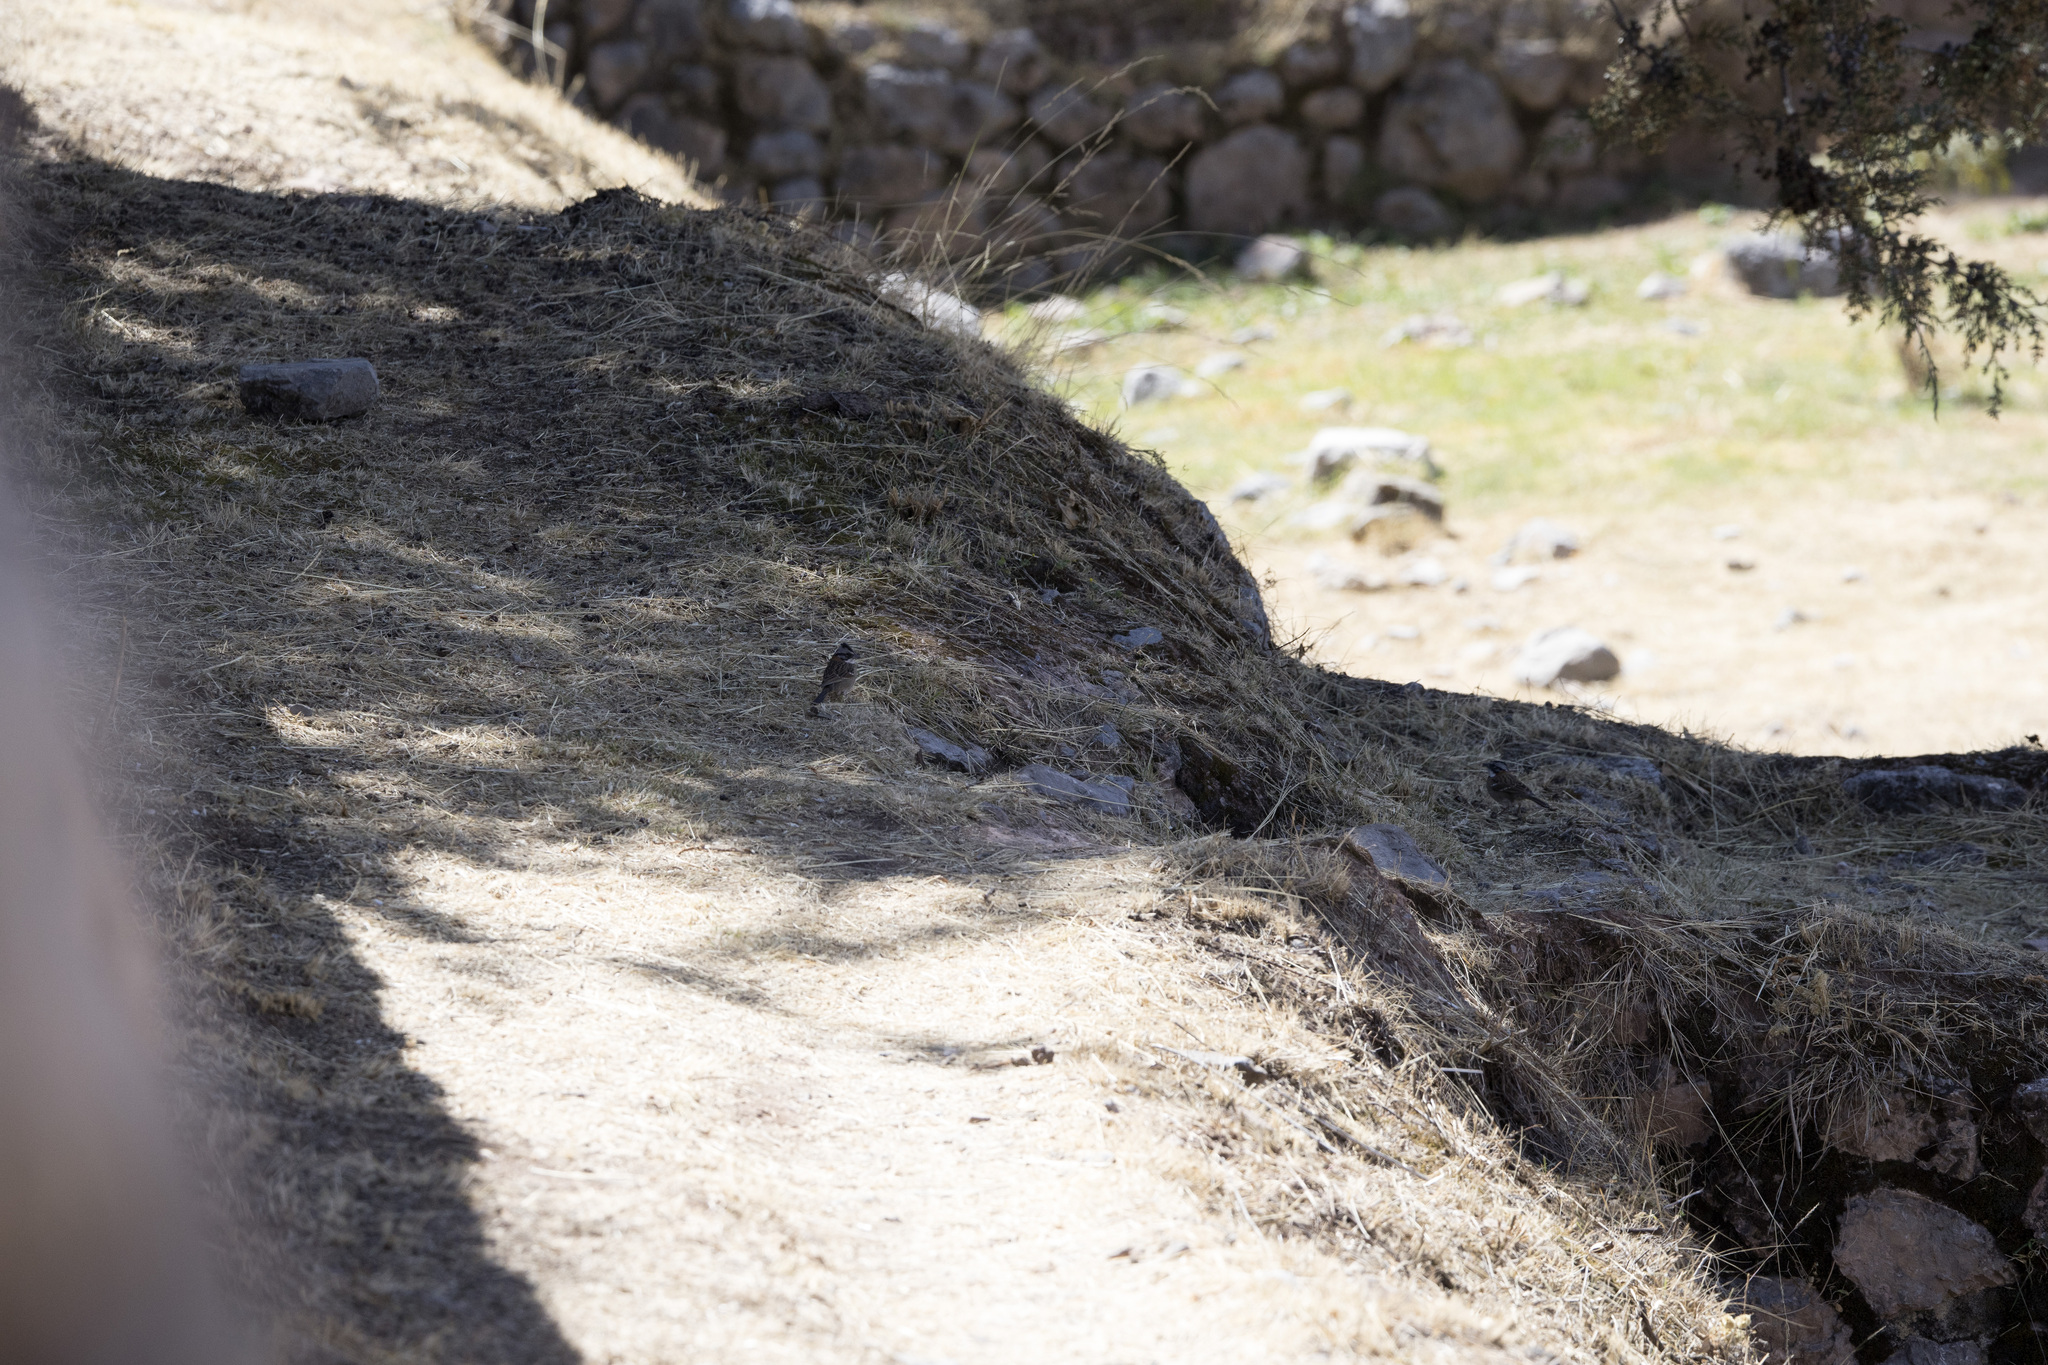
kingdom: Animalia
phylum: Chordata
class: Aves
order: Passeriformes
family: Passerellidae
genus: Zonotrichia
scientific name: Zonotrichia capensis
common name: Rufous-collared sparrow
